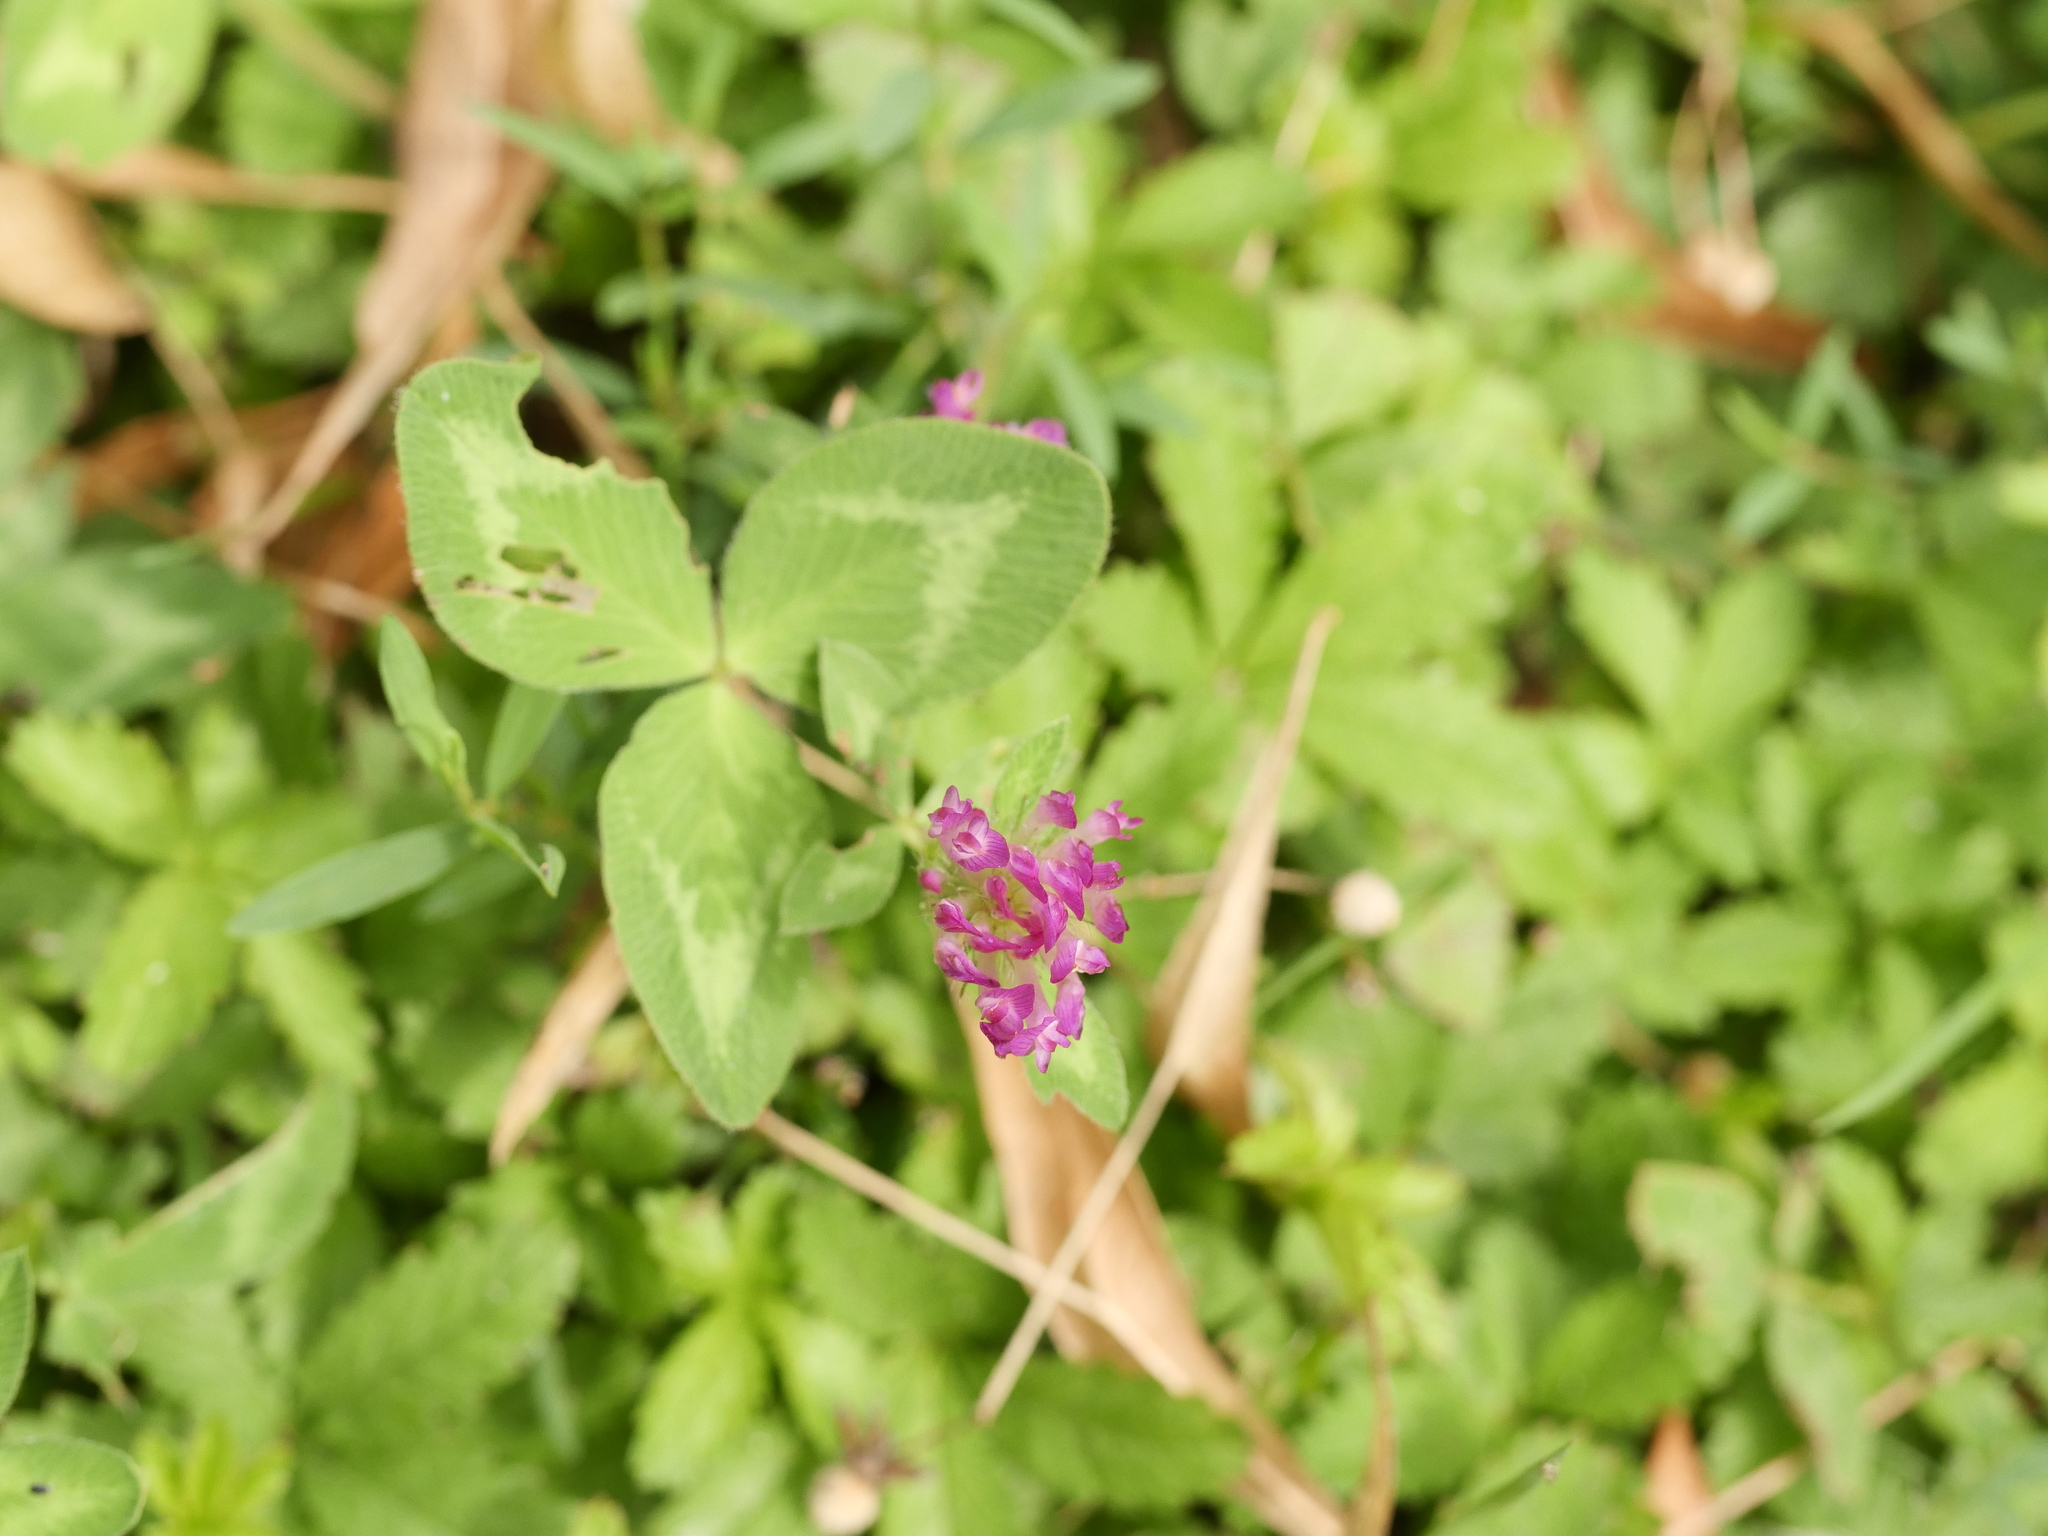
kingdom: Plantae
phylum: Tracheophyta
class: Magnoliopsida
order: Fabales
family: Fabaceae
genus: Trifolium
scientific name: Trifolium pratense
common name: Red clover
